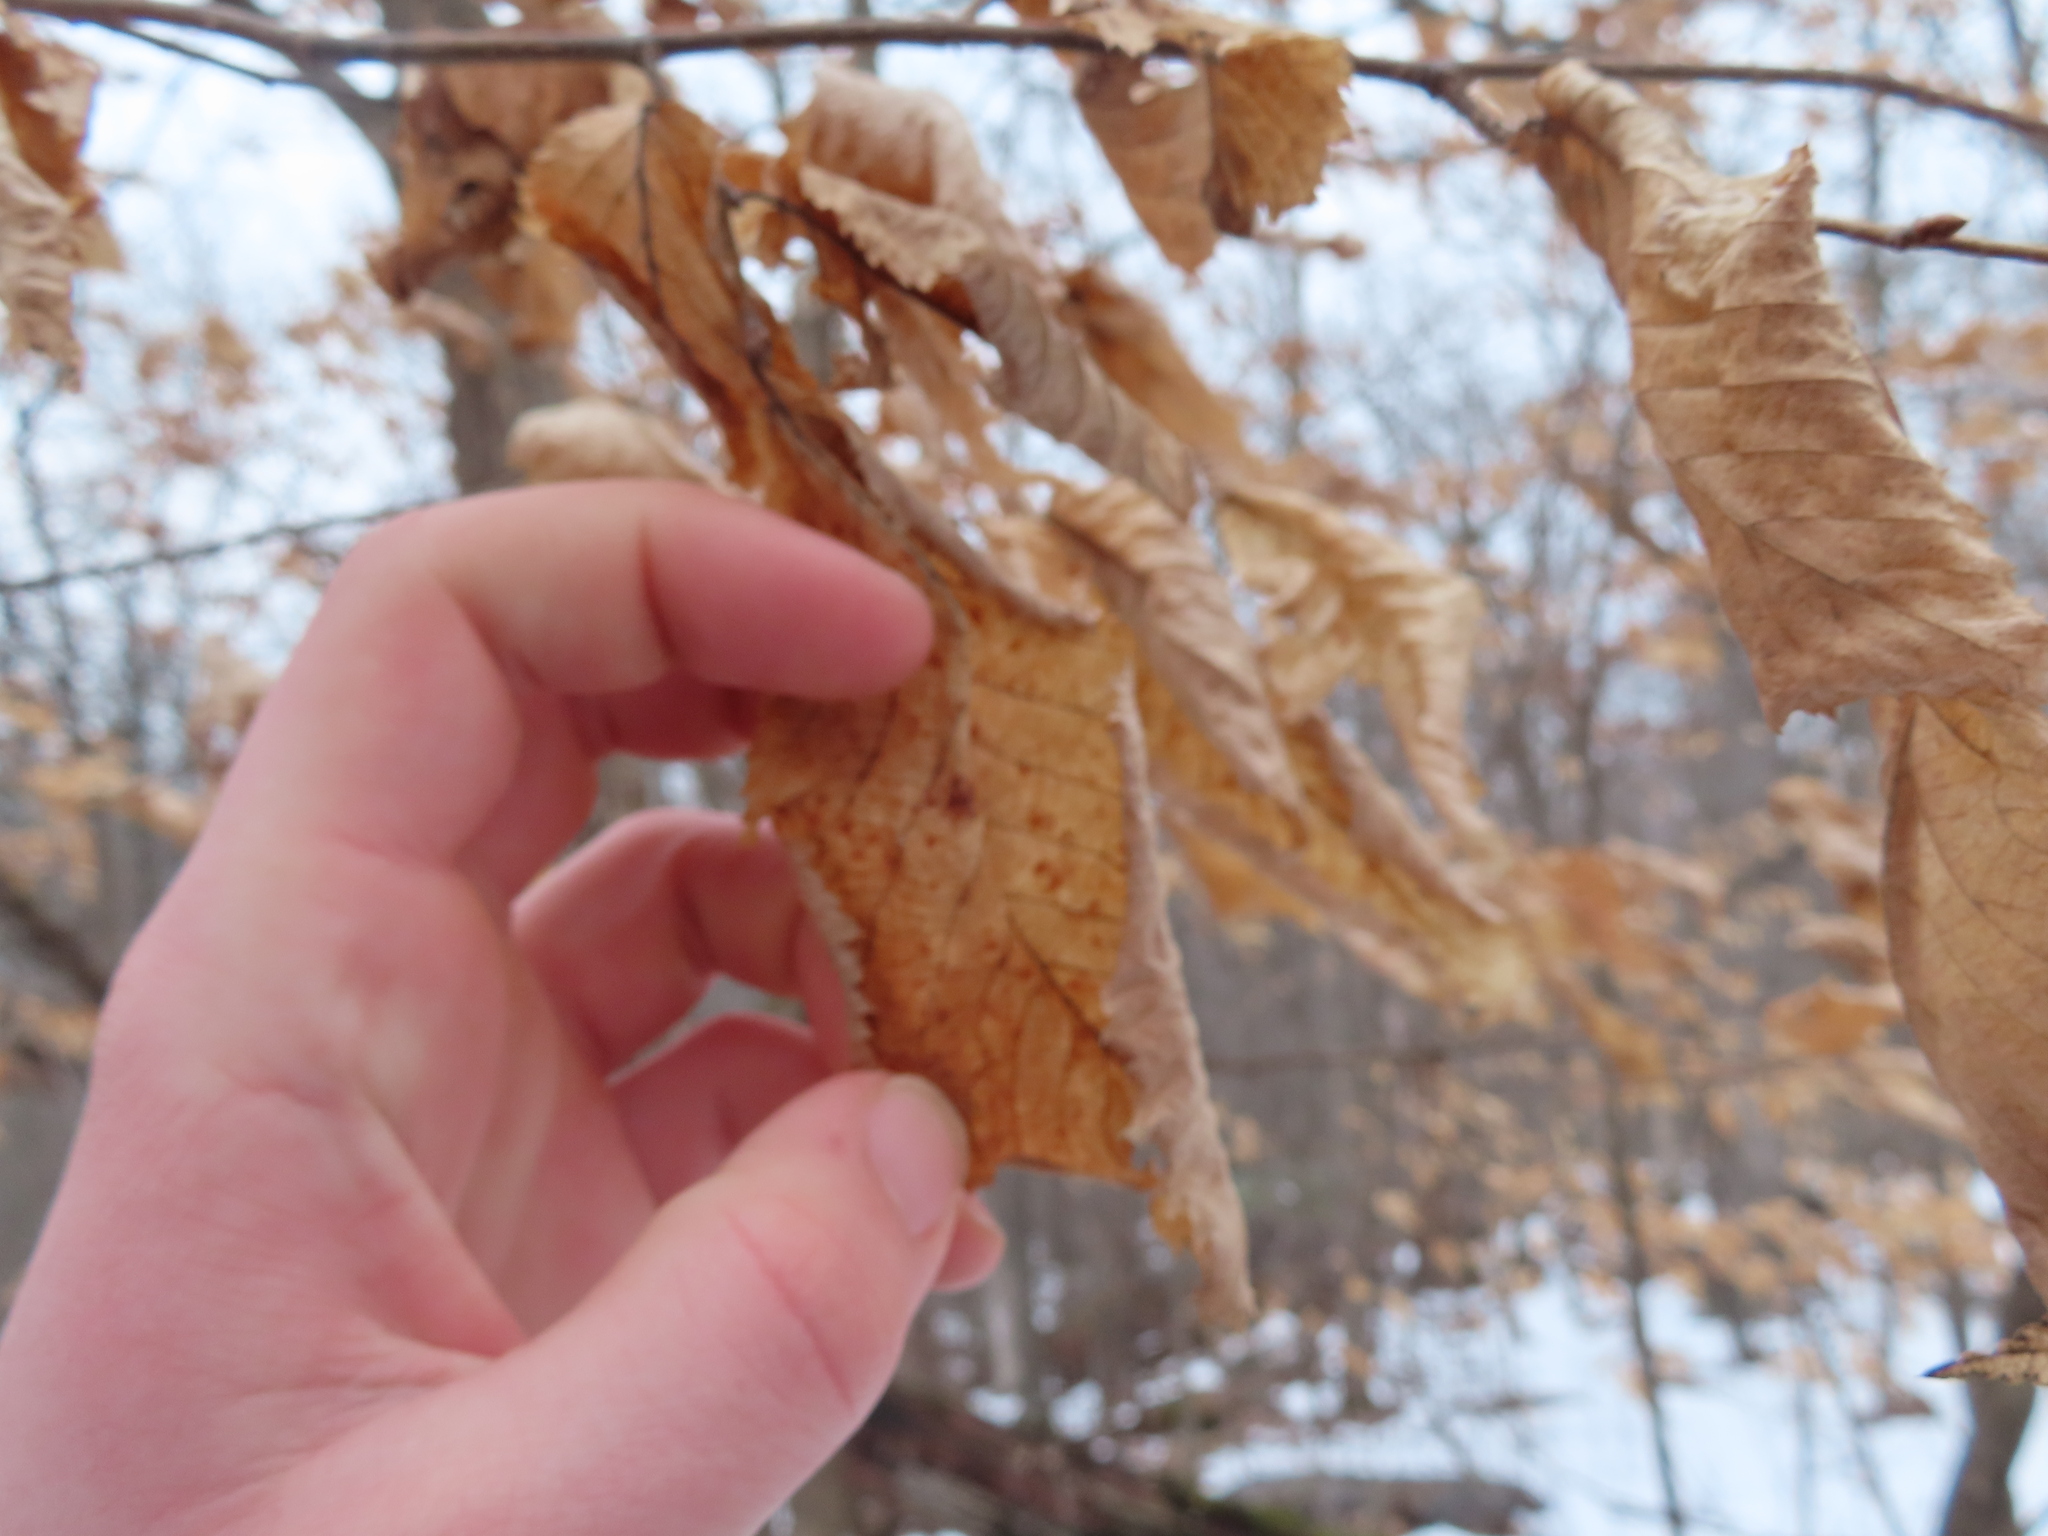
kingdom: Plantae
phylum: Tracheophyta
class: Magnoliopsida
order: Fagales
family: Betulaceae
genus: Ostrya
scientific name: Ostrya virginiana
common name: Ironwood
